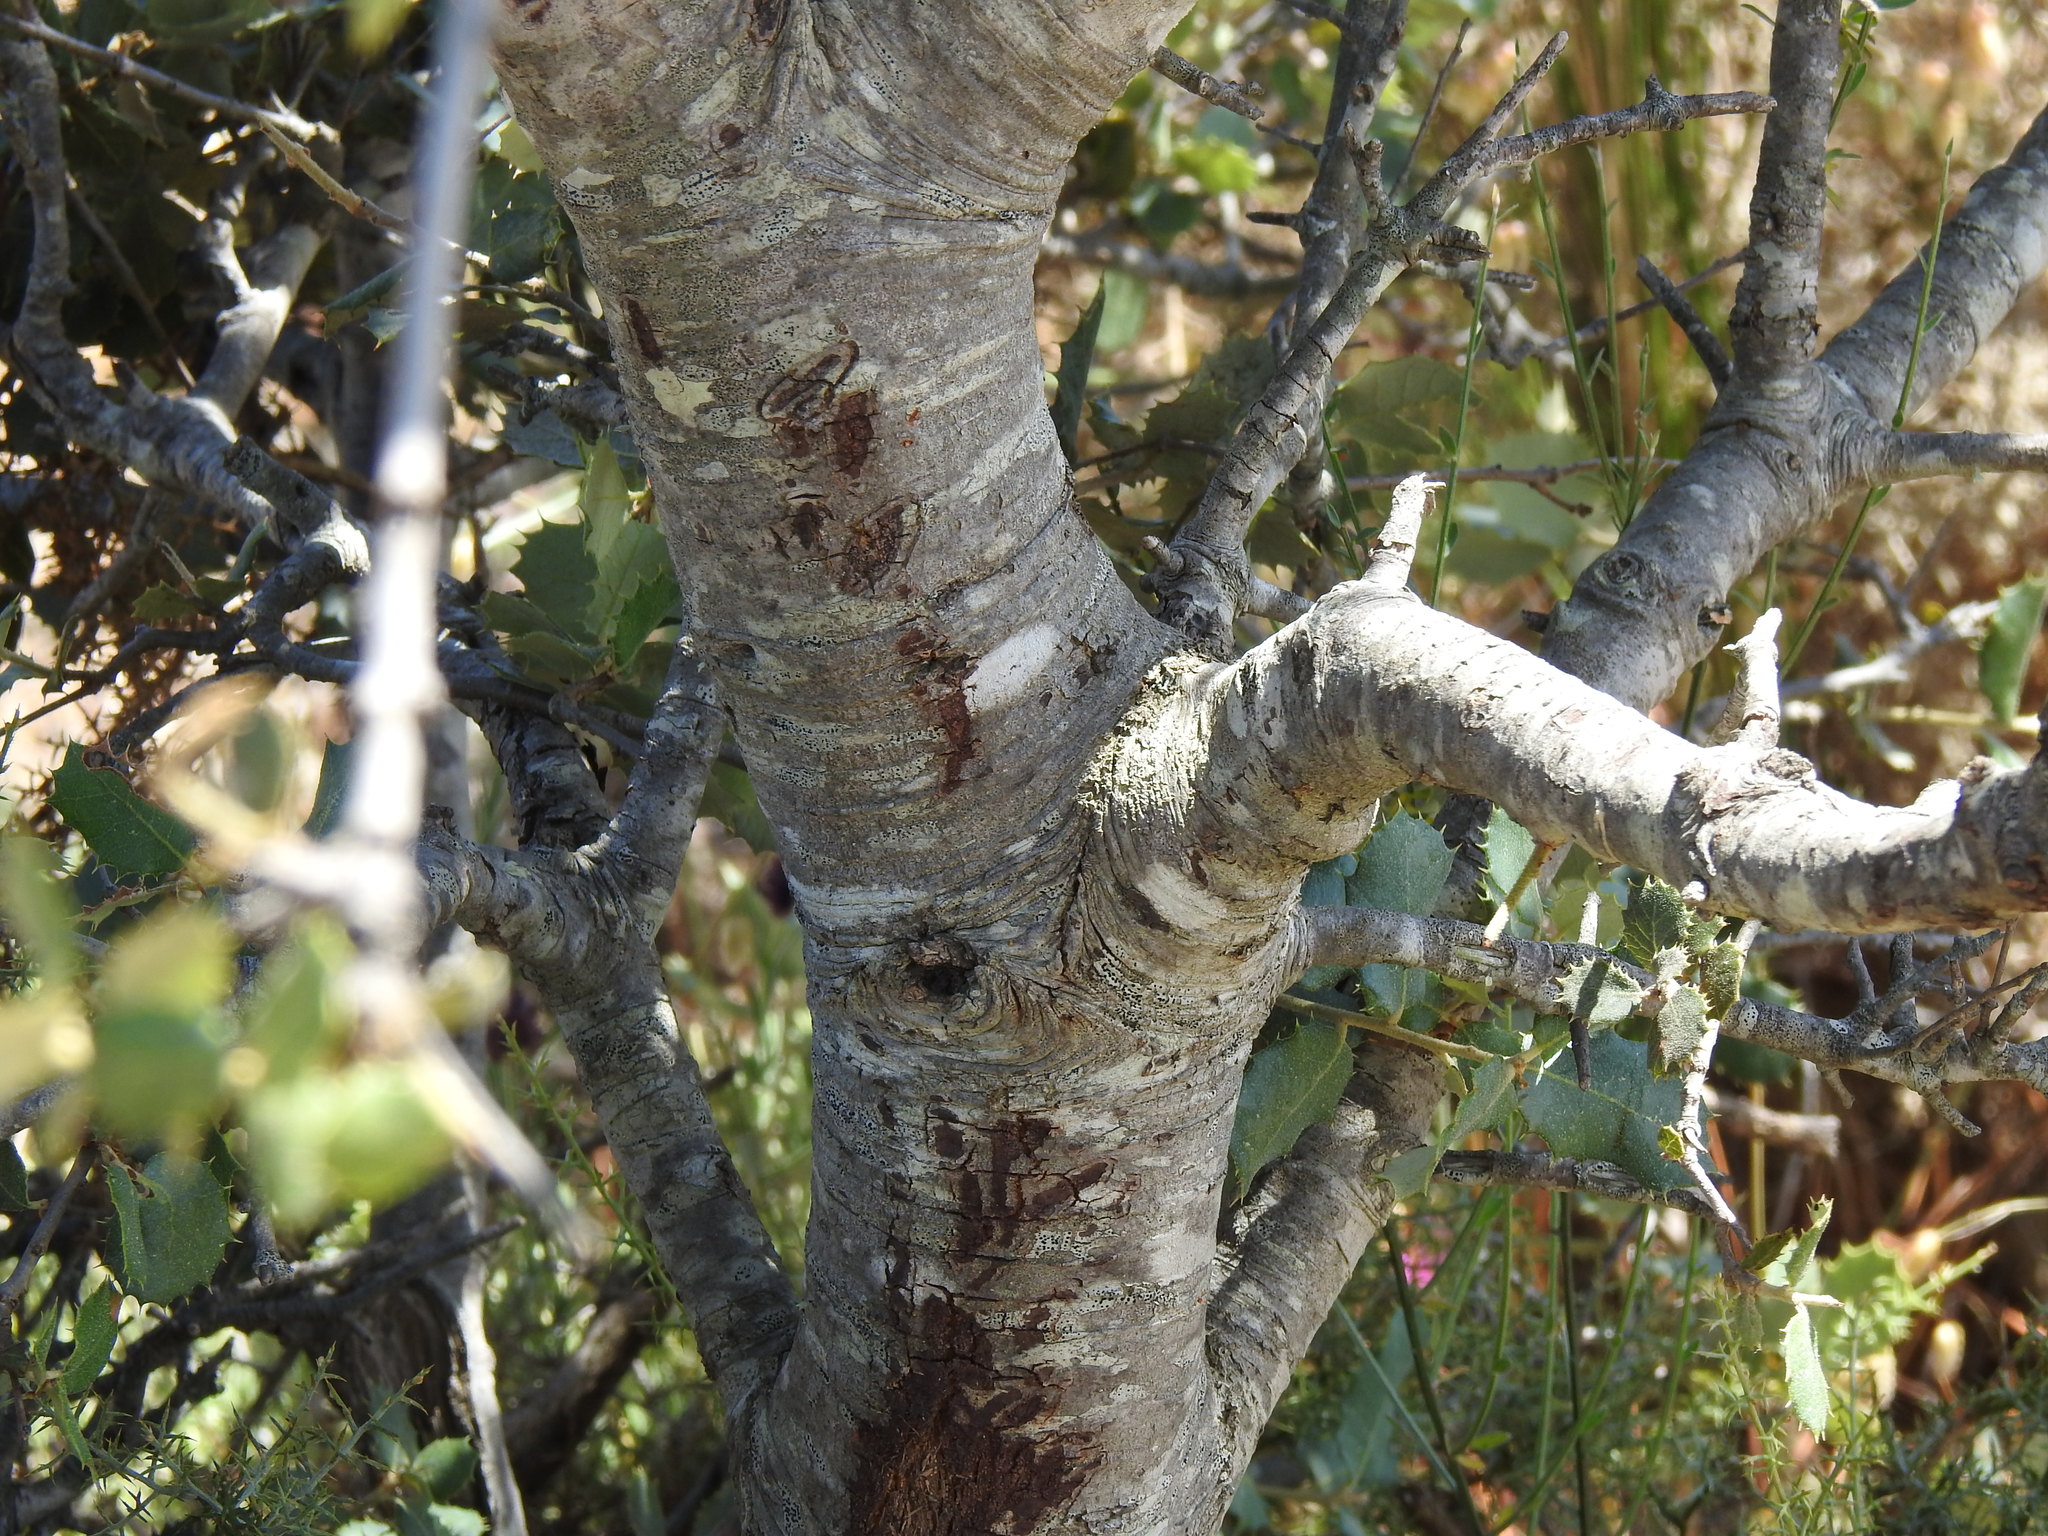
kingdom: Plantae
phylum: Tracheophyta
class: Magnoliopsida
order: Fagales
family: Fagaceae
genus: Quercus
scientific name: Quercus rotundifolia
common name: Holm oak
